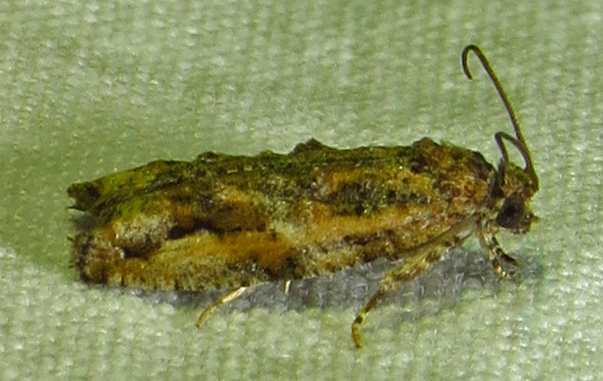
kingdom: Animalia
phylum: Arthropoda
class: Insecta
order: Lepidoptera
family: Tortricidae
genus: Proteoteras
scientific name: Proteoteras aesculana
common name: Maple twig borer moth
